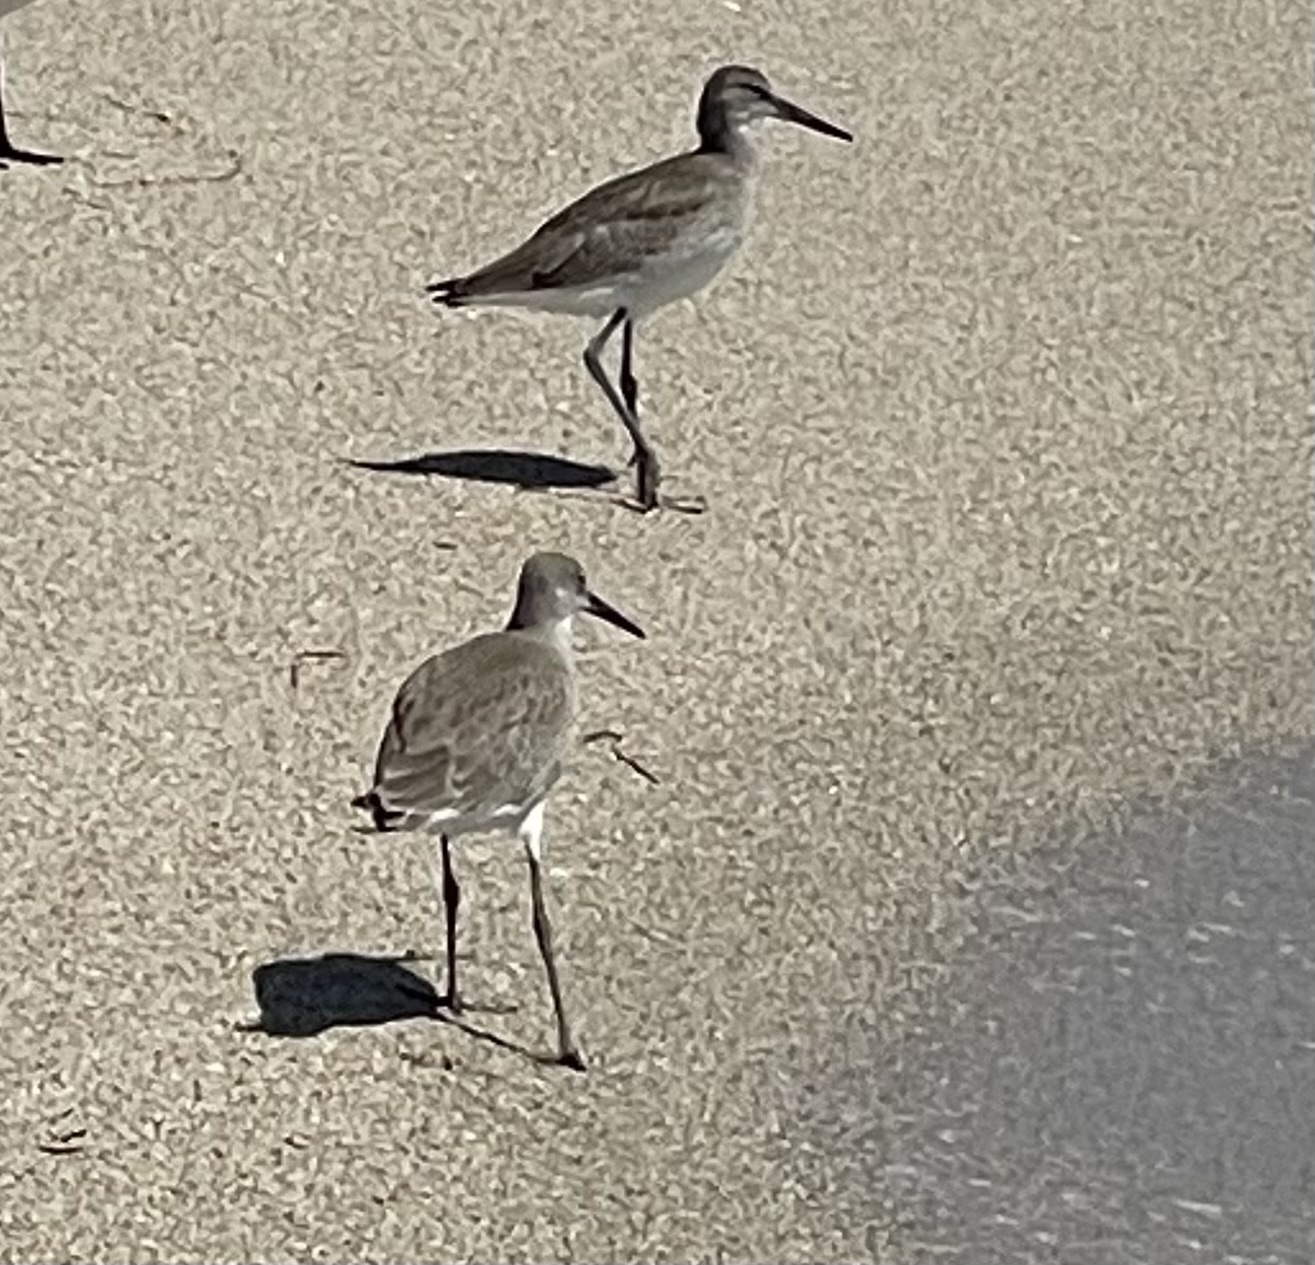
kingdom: Animalia
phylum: Chordata
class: Aves
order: Charadriiformes
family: Scolopacidae
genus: Tringa
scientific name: Tringa semipalmata
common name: Willet
